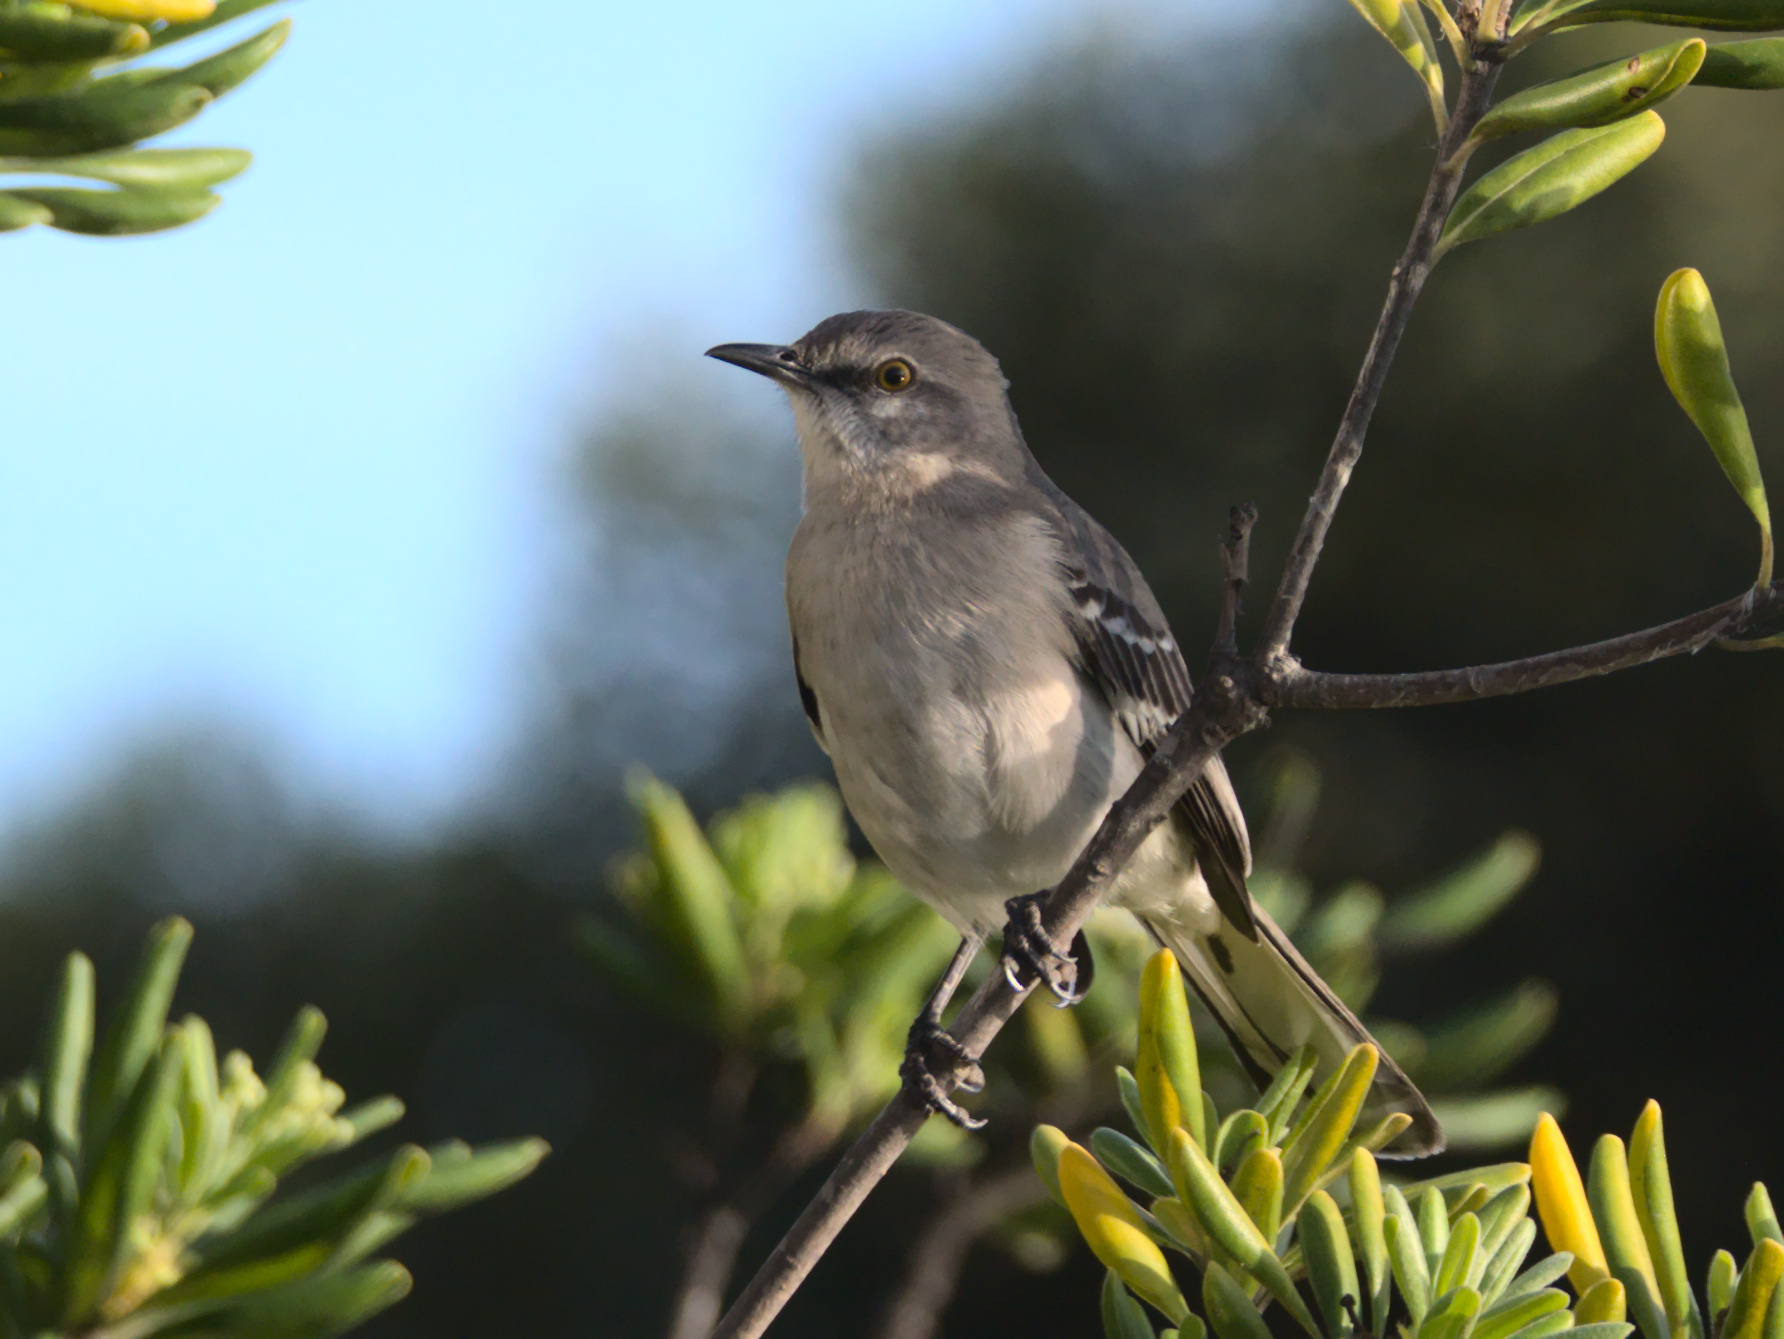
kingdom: Animalia
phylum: Chordata
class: Aves
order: Passeriformes
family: Mimidae
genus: Mimus
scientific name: Mimus polyglottos
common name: Northern mockingbird
